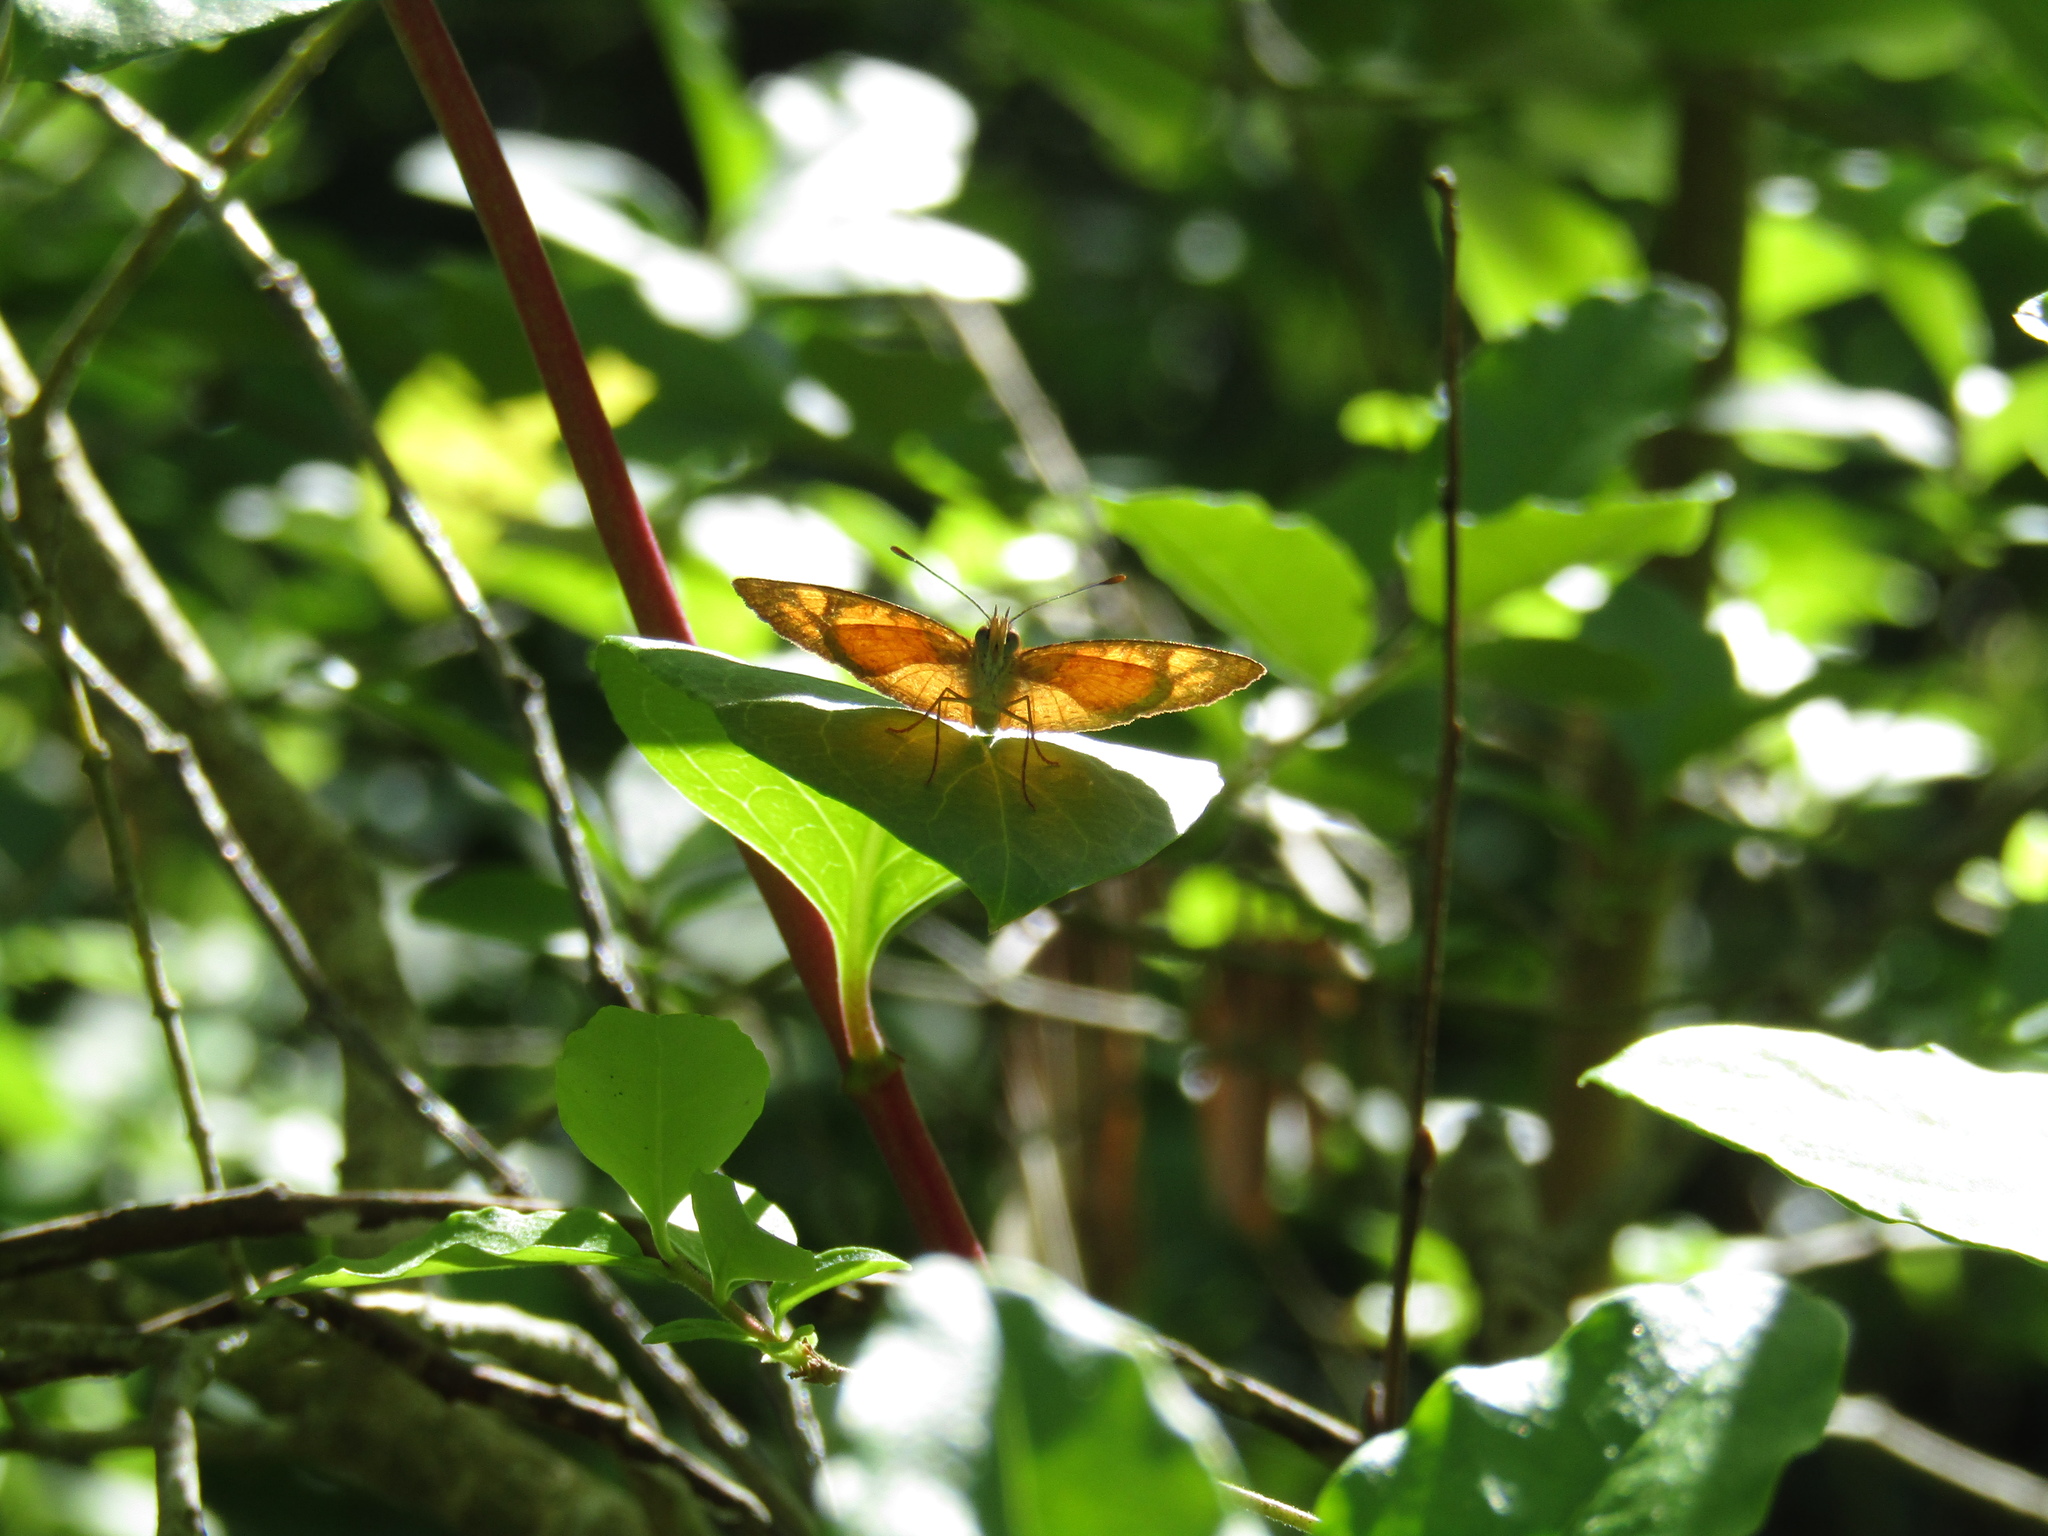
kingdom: Animalia
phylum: Arthropoda
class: Insecta
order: Lepidoptera
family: Nymphalidae
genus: Tegosa
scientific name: Tegosa claudina
